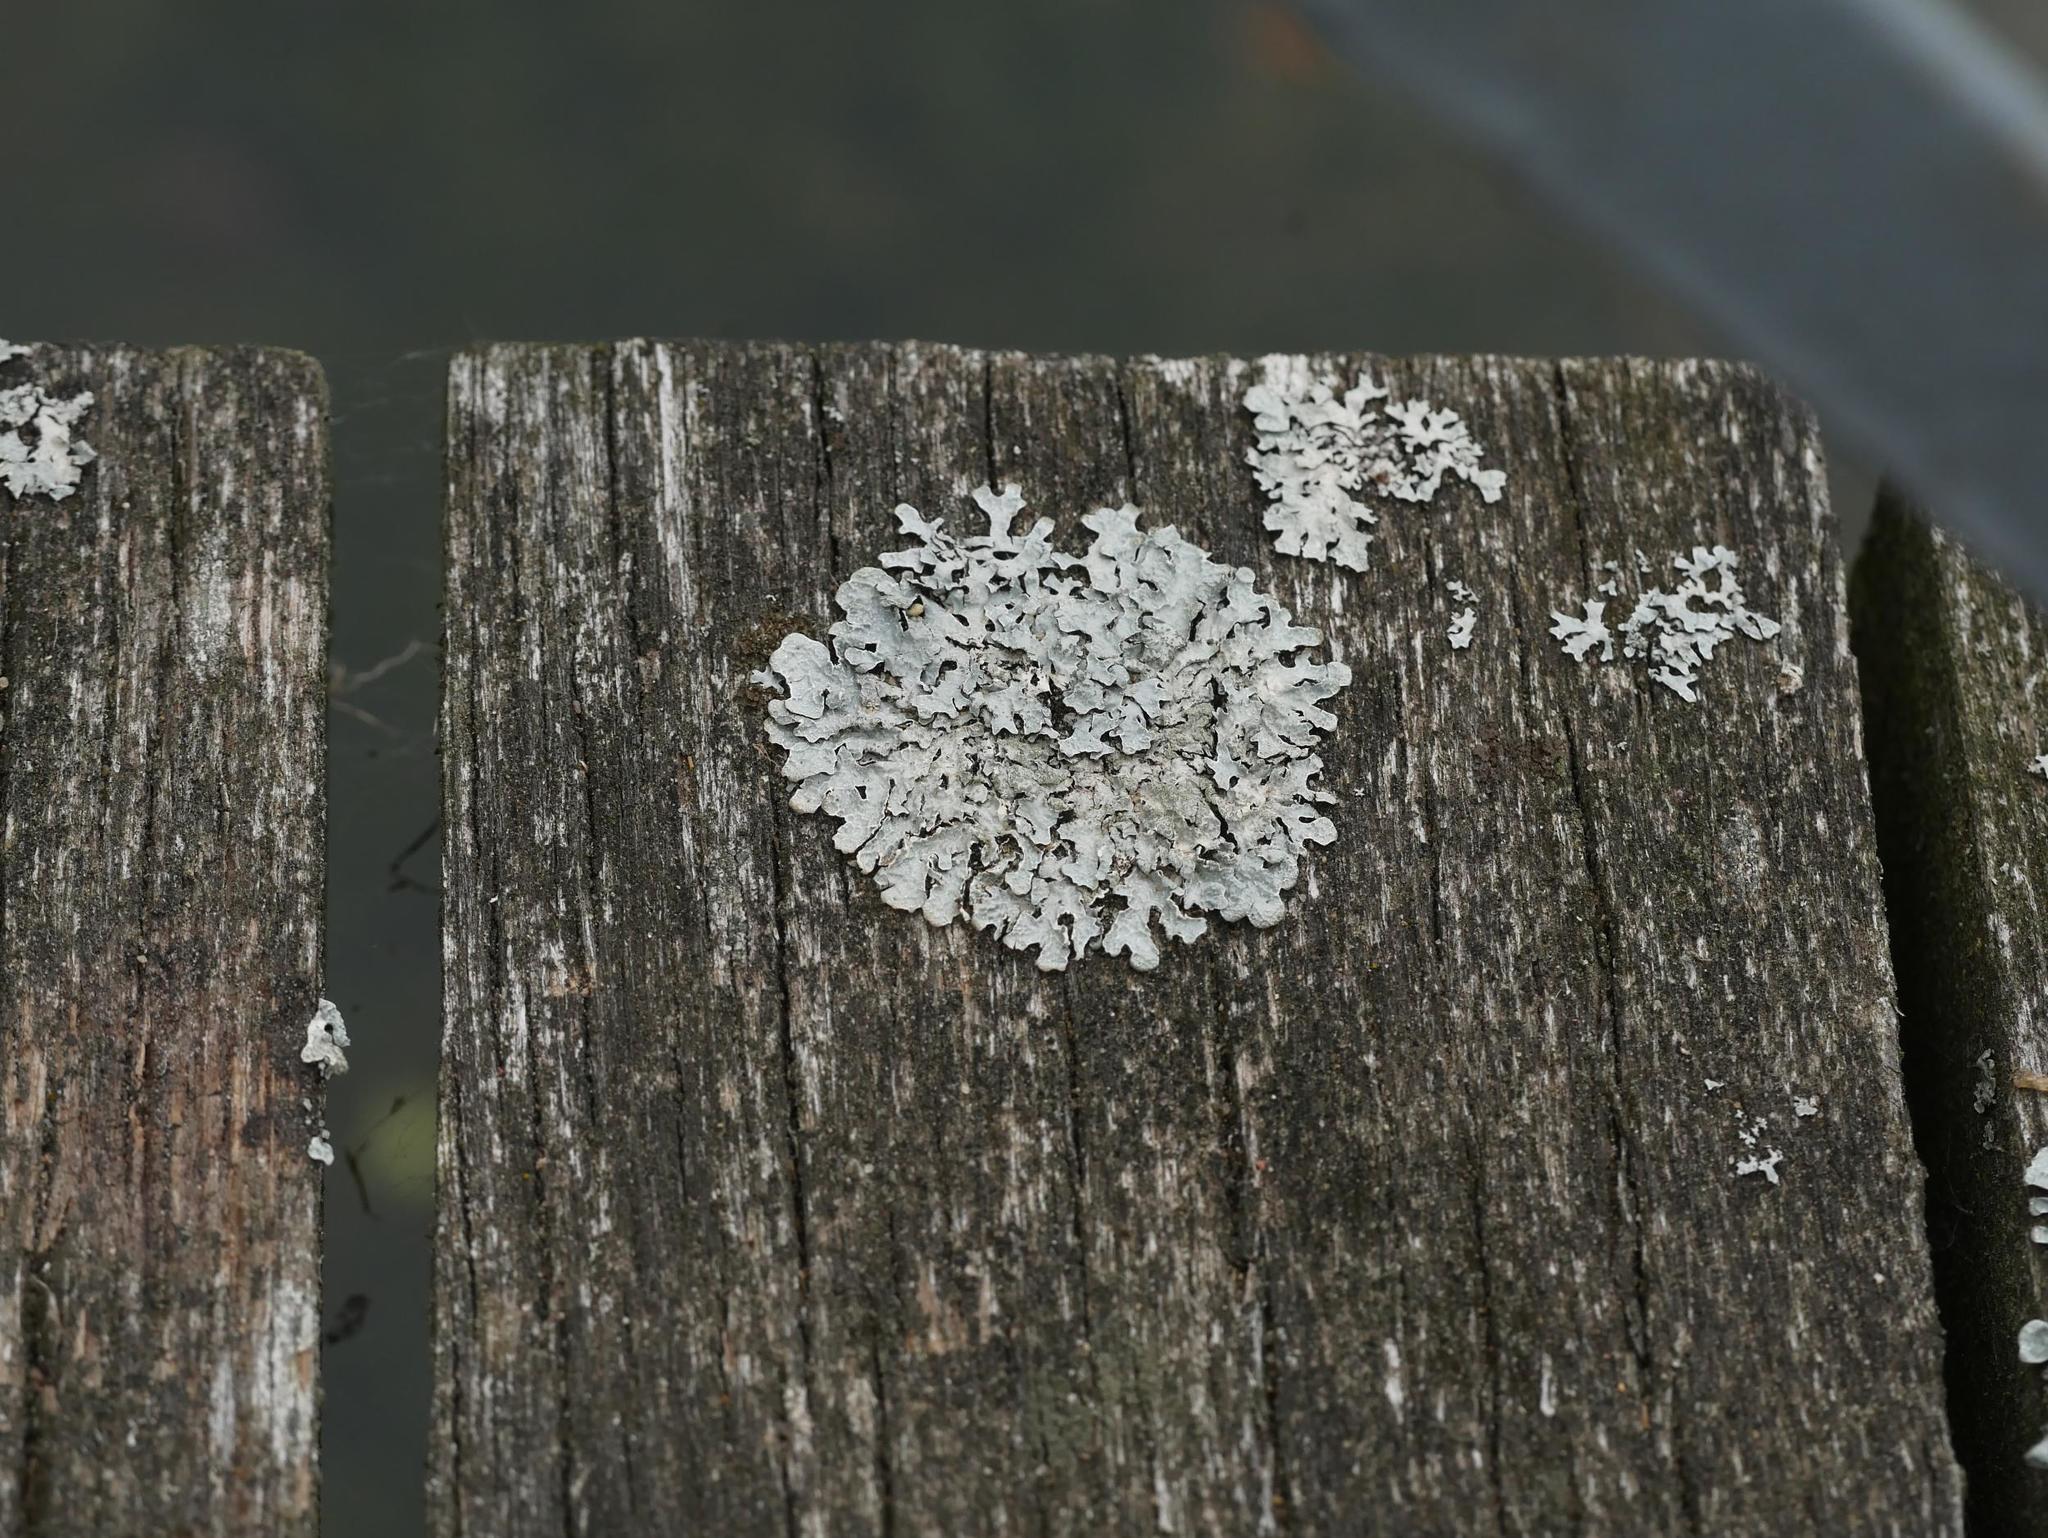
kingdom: Fungi
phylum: Ascomycota
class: Lecanoromycetes
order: Lecanorales
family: Parmeliaceae
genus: Parmelia
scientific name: Parmelia sulcata
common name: Netted shield lichen
